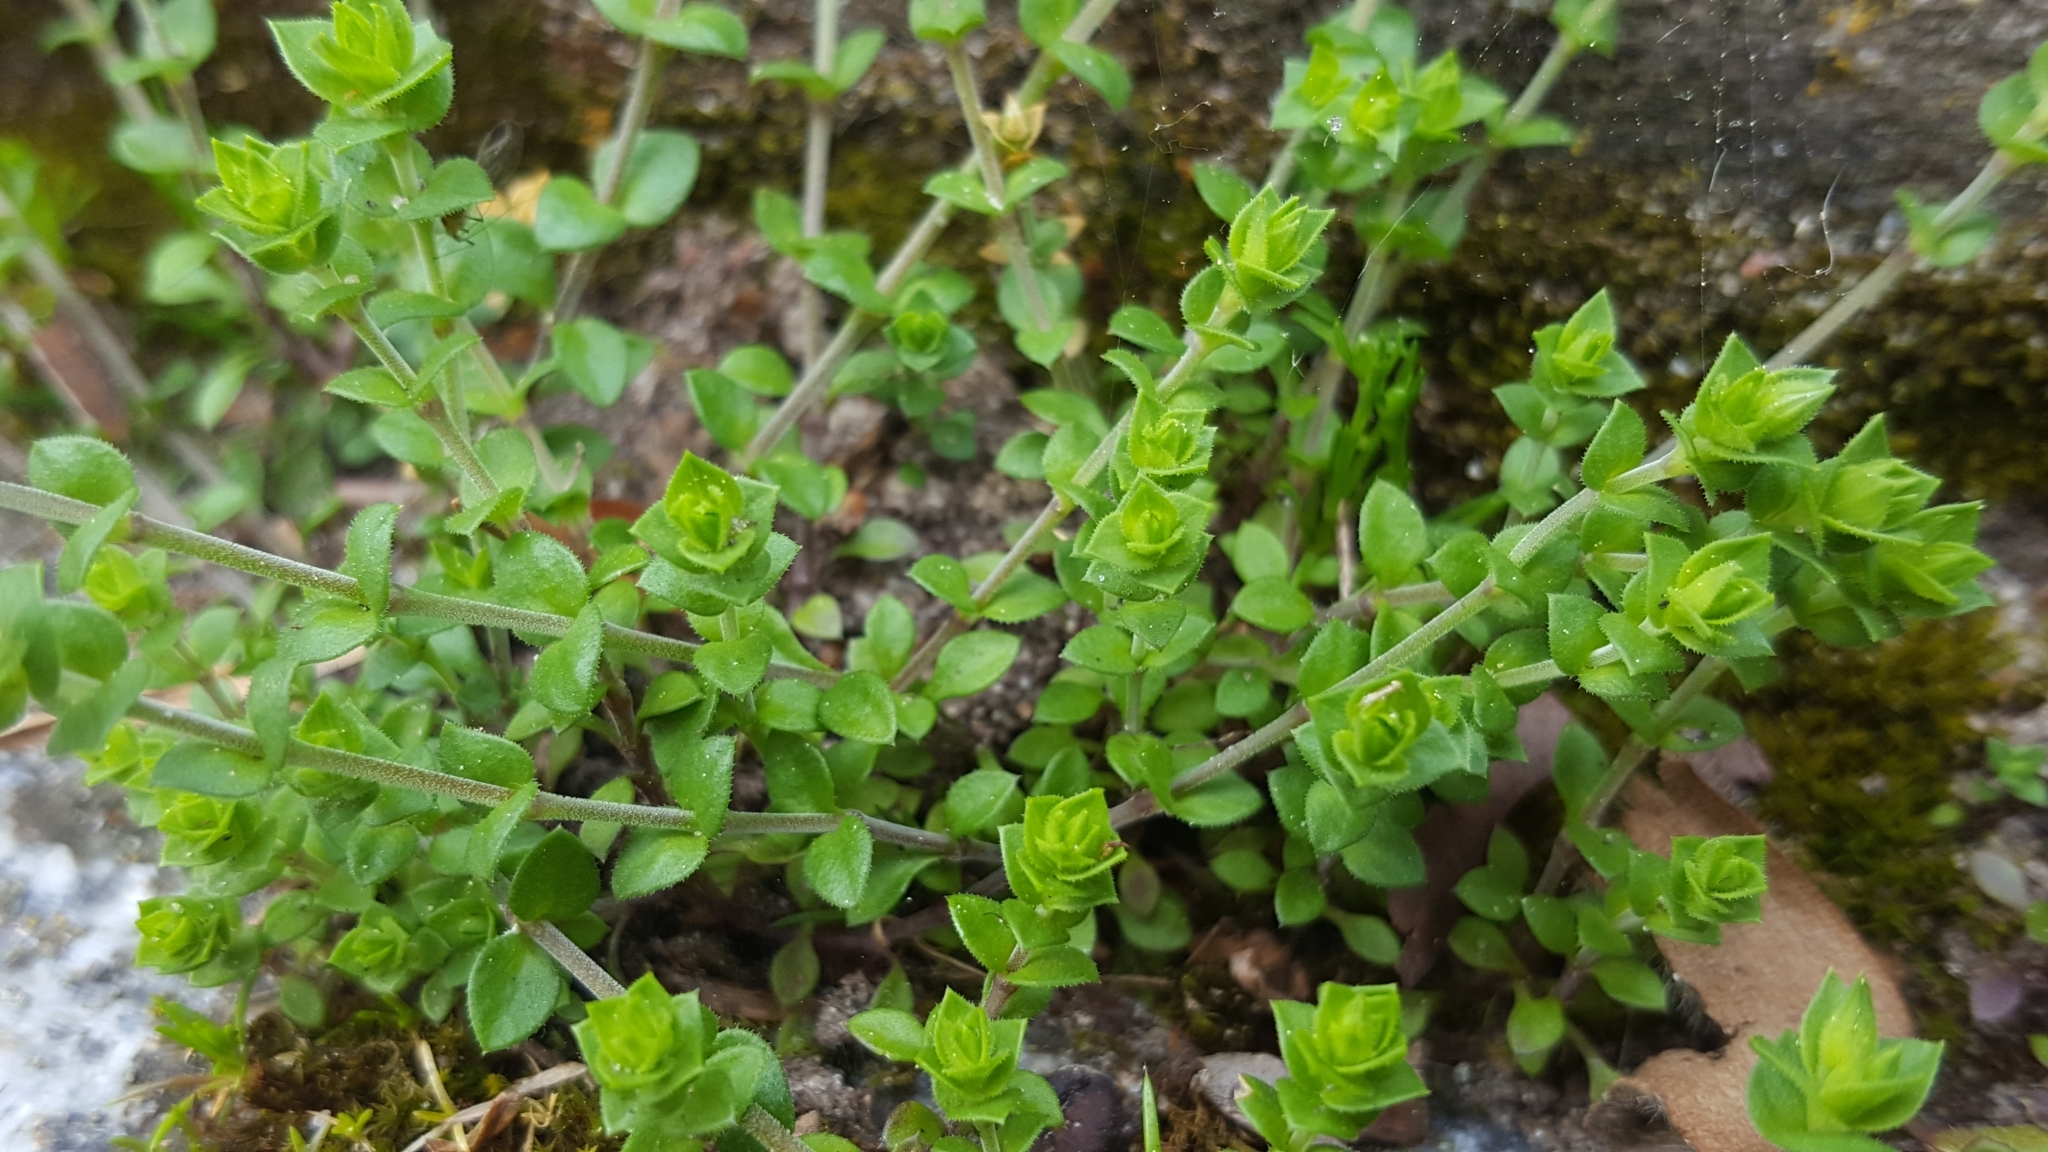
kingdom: Plantae
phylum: Tracheophyta
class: Magnoliopsida
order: Caryophyllales
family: Caryophyllaceae
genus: Arenaria
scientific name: Arenaria serpyllifolia
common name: Thyme-leaved sandwort
